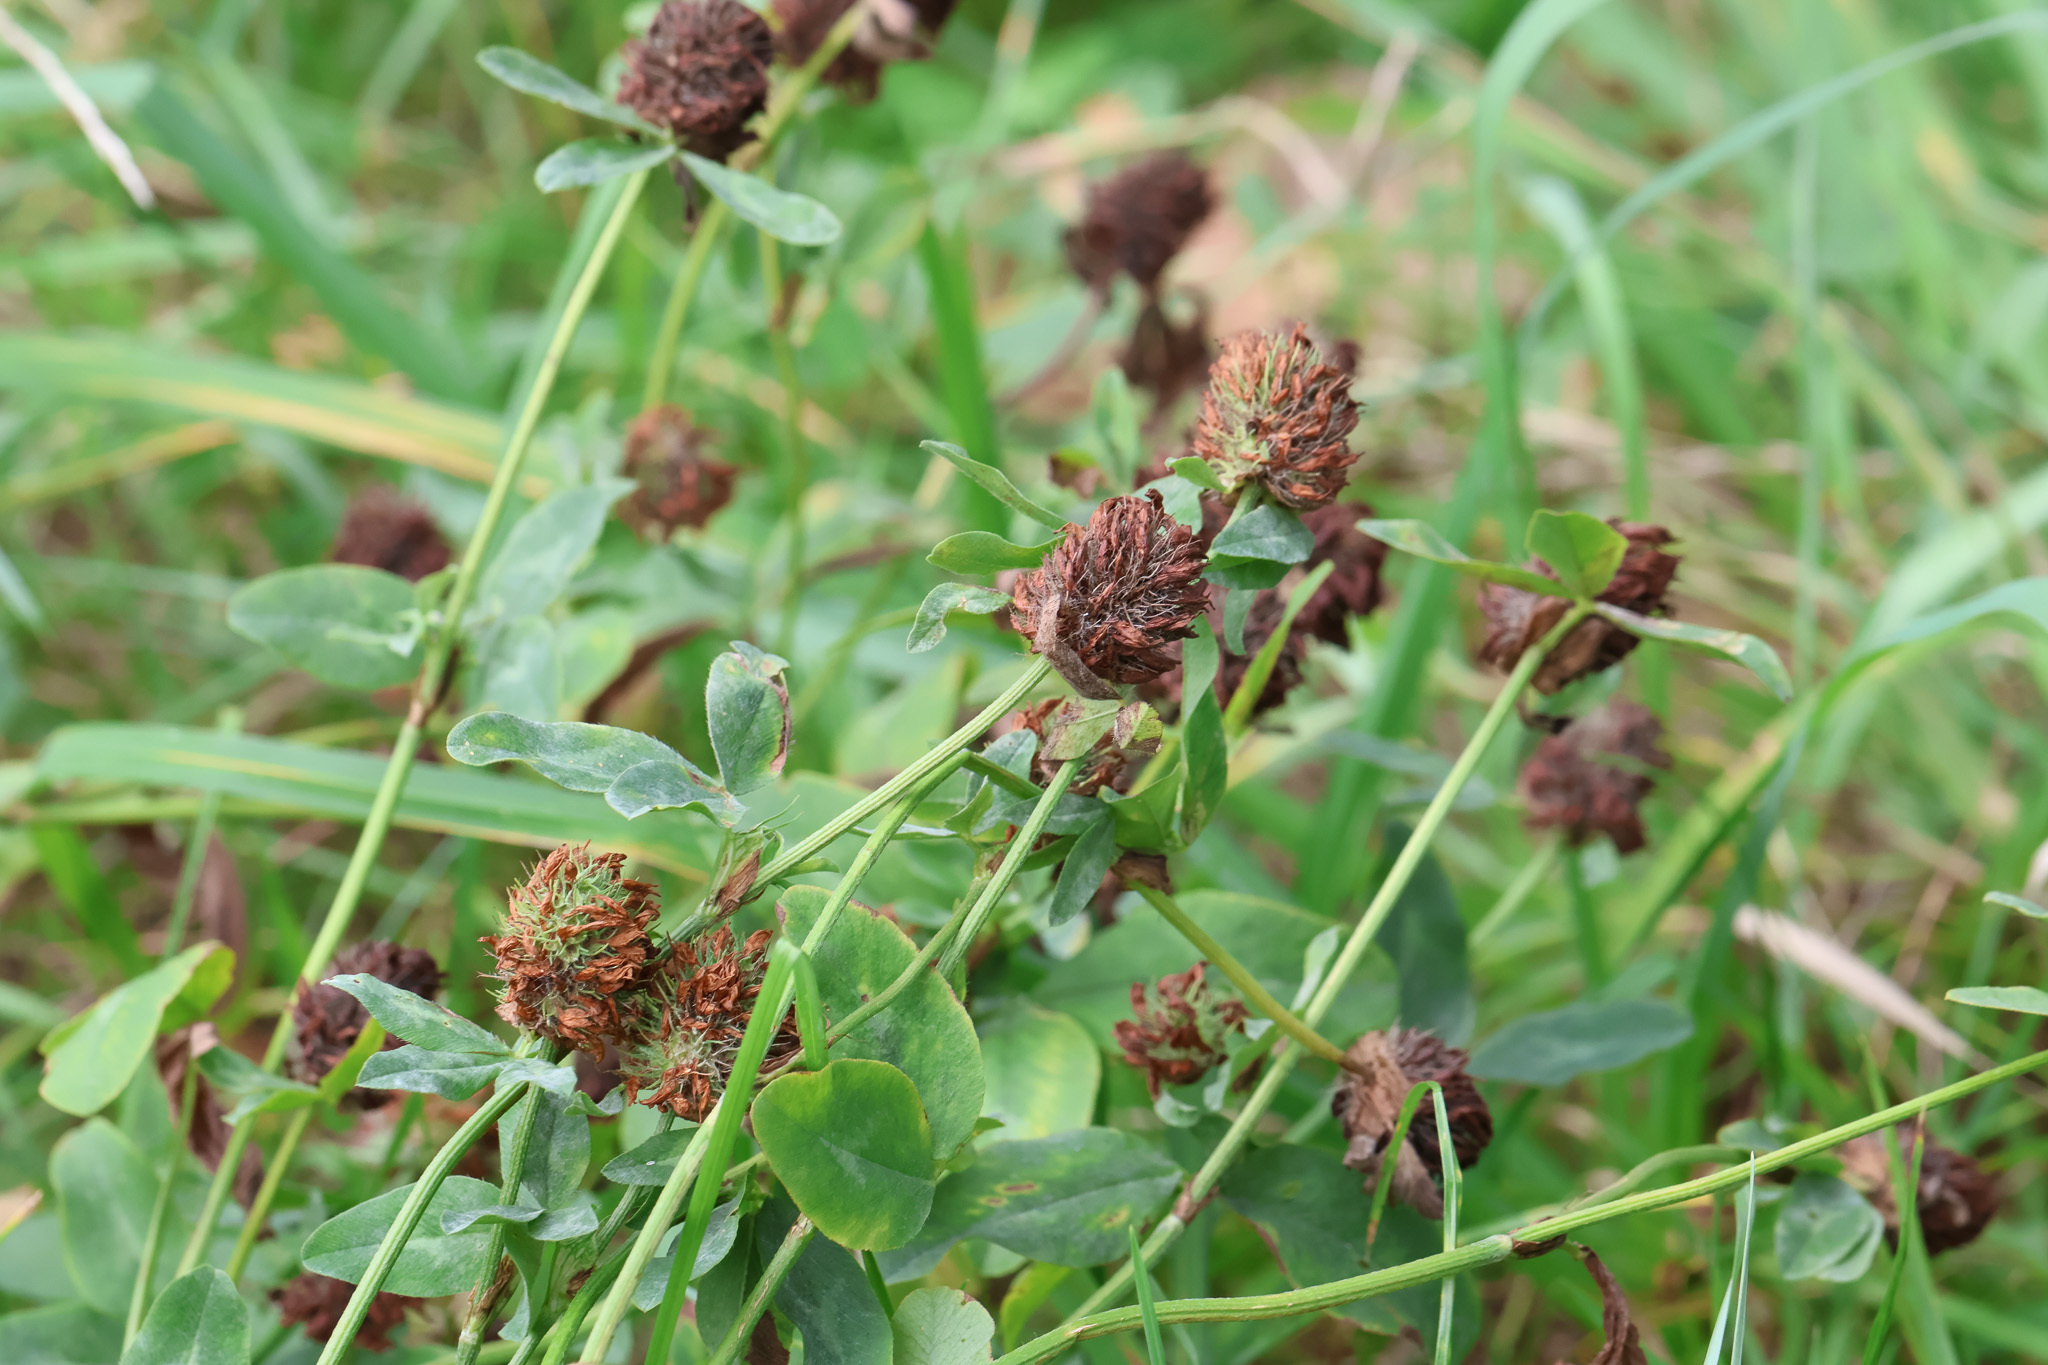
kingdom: Plantae
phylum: Tracheophyta
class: Magnoliopsida
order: Fabales
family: Fabaceae
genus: Trifolium
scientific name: Trifolium pratense
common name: Red clover
